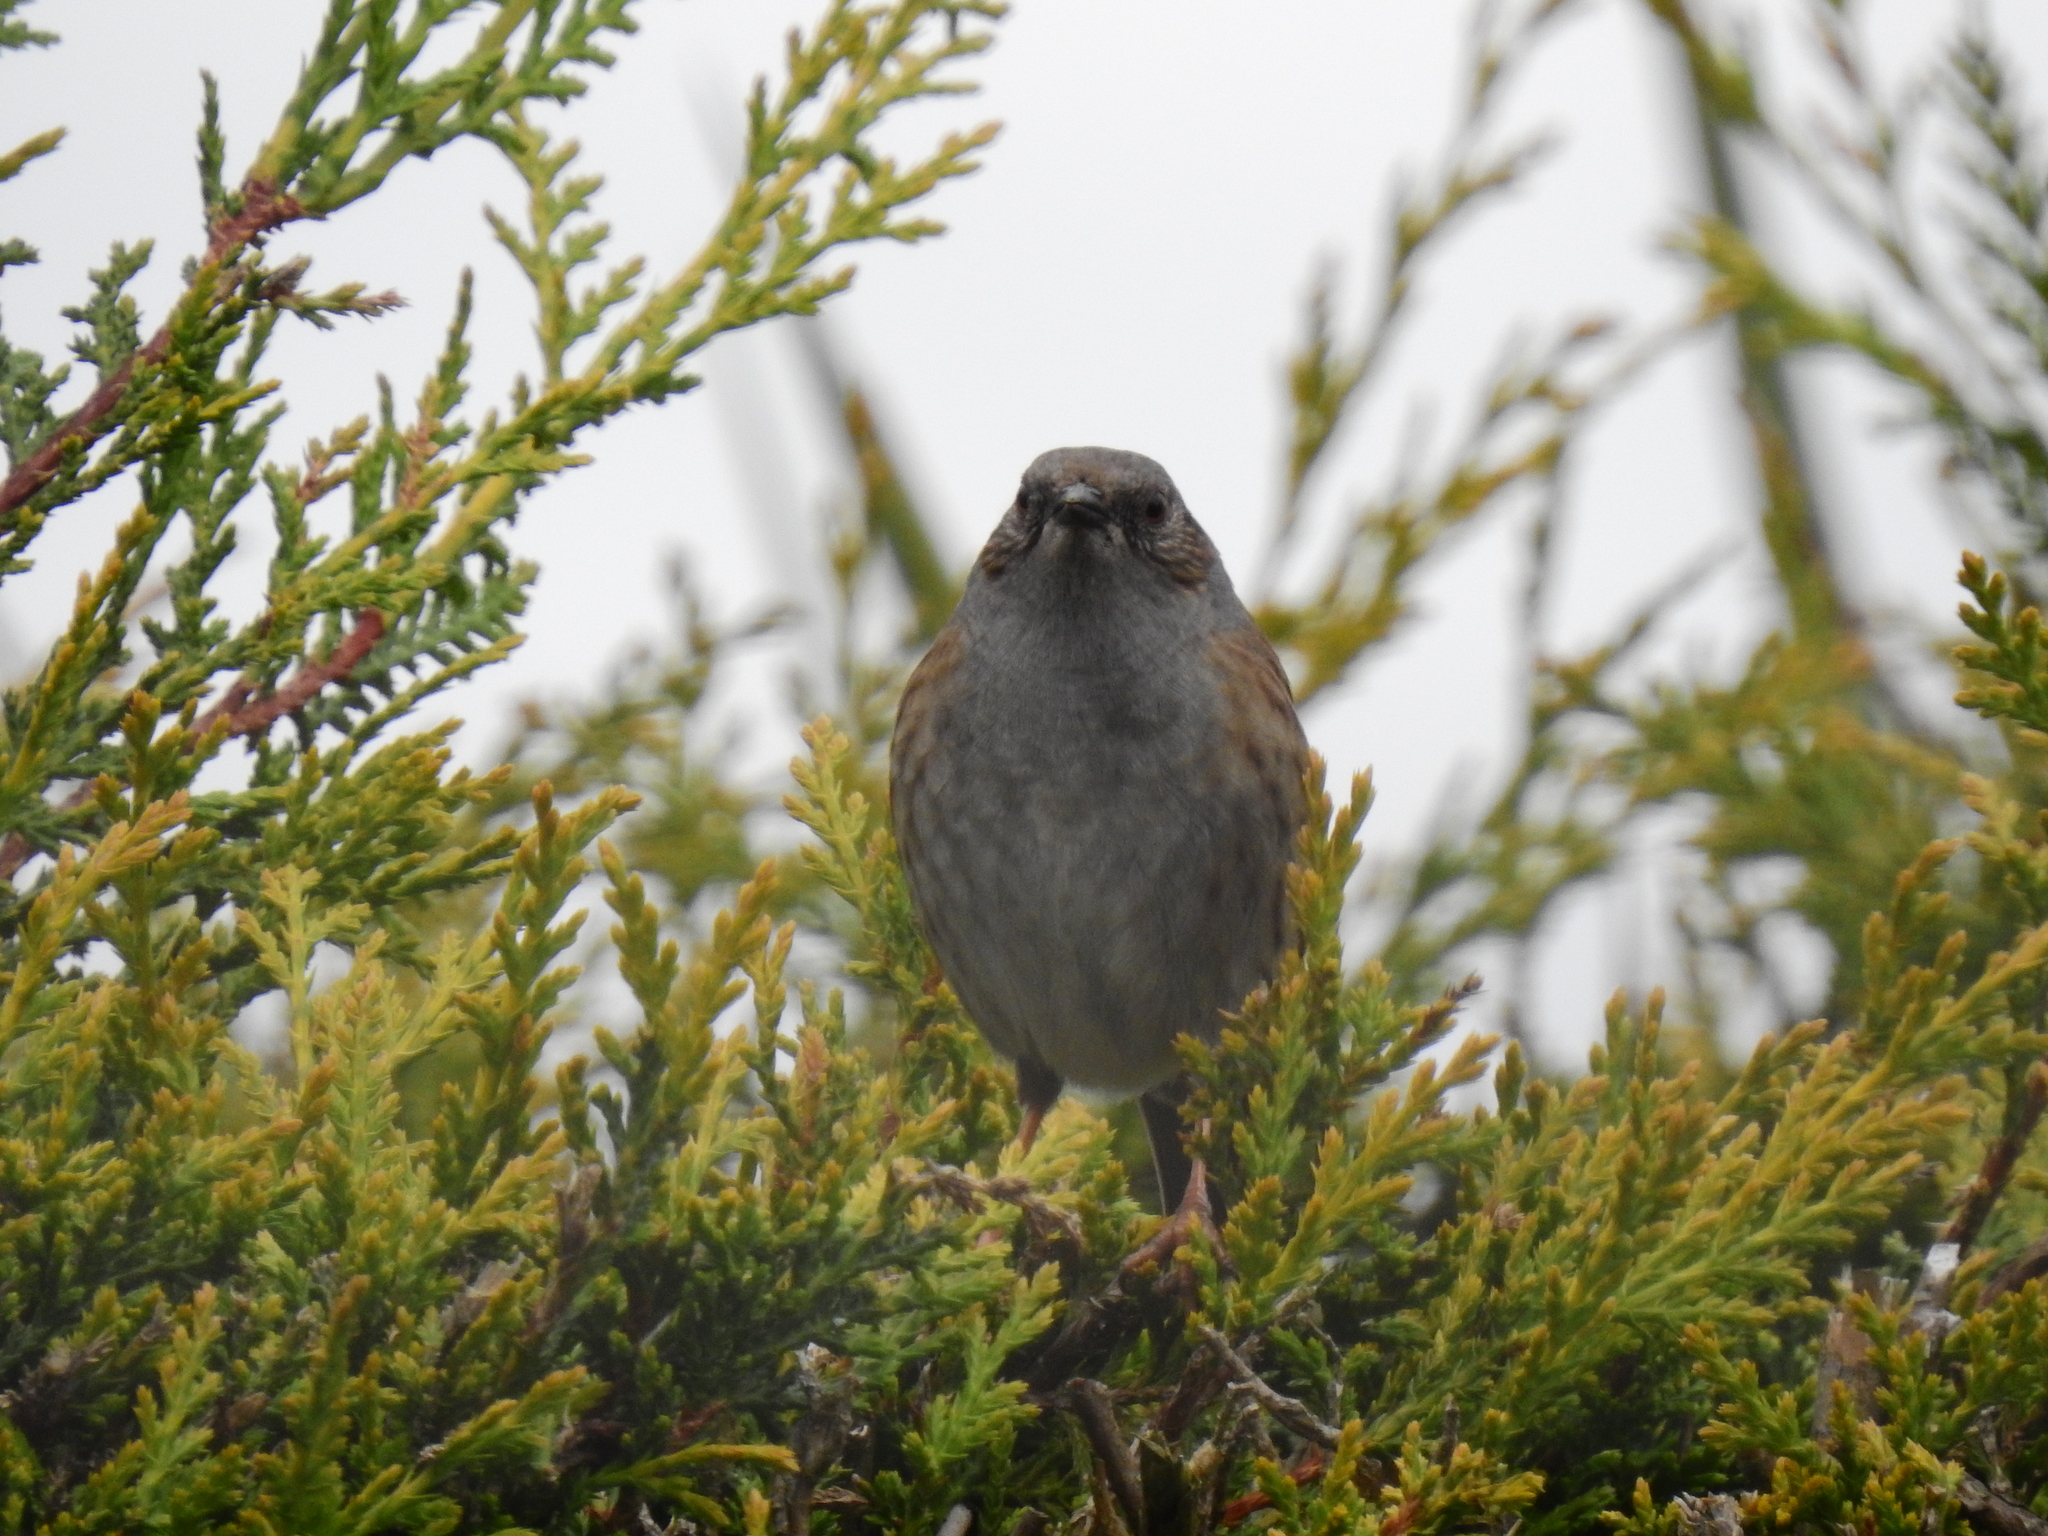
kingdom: Animalia
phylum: Chordata
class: Aves
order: Passeriformes
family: Prunellidae
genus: Prunella
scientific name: Prunella modularis
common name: Dunnock
